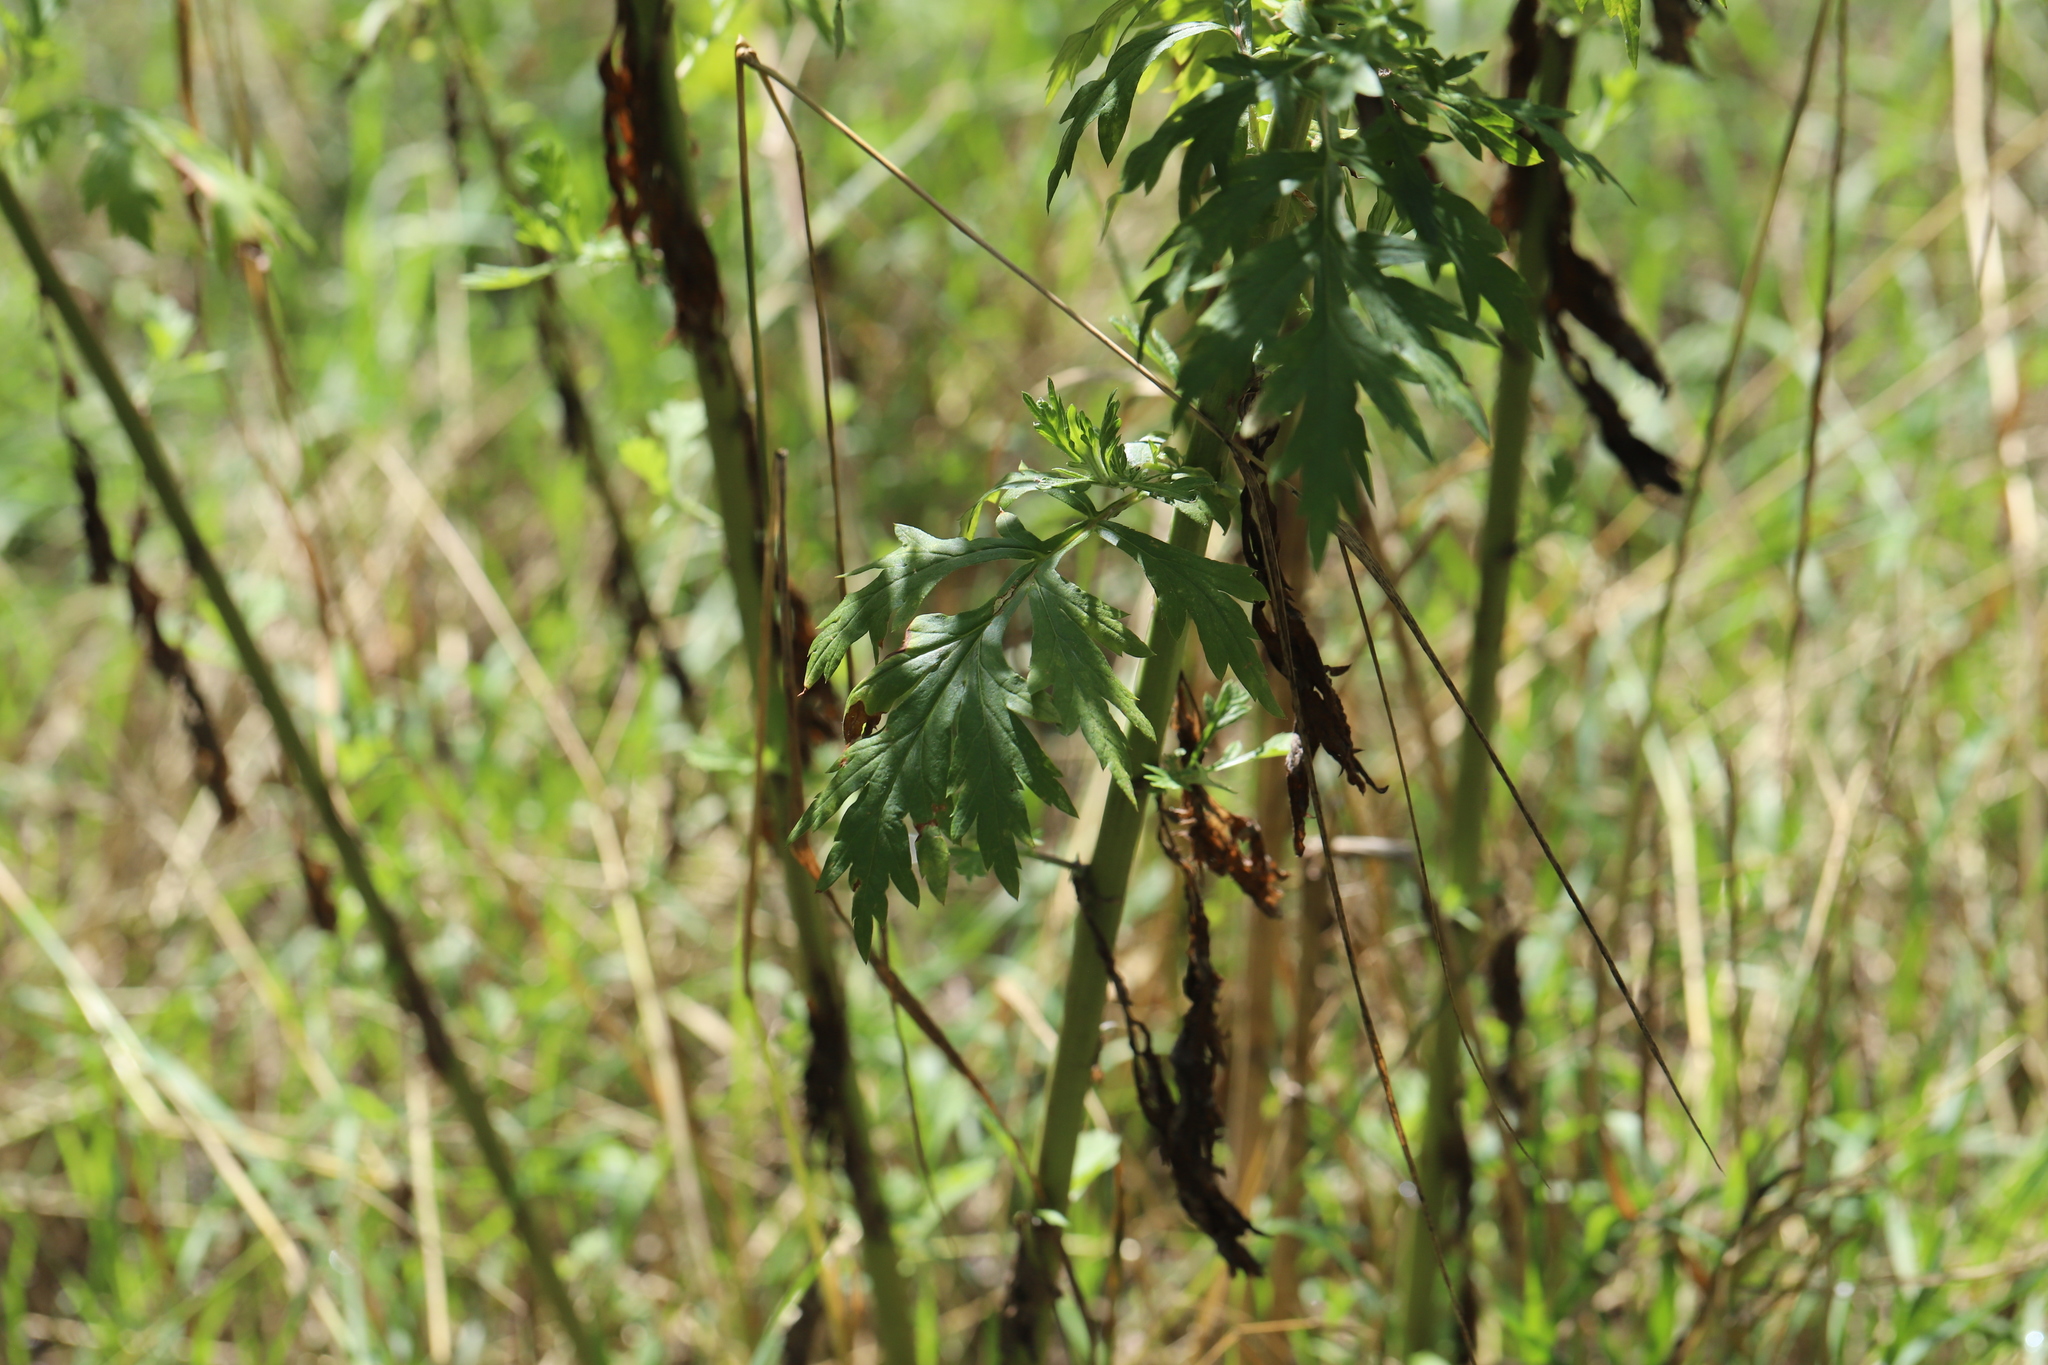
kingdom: Plantae
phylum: Tracheophyta
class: Magnoliopsida
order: Asterales
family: Asteraceae
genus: Artemisia
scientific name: Artemisia vulgaris
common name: Mugwort
